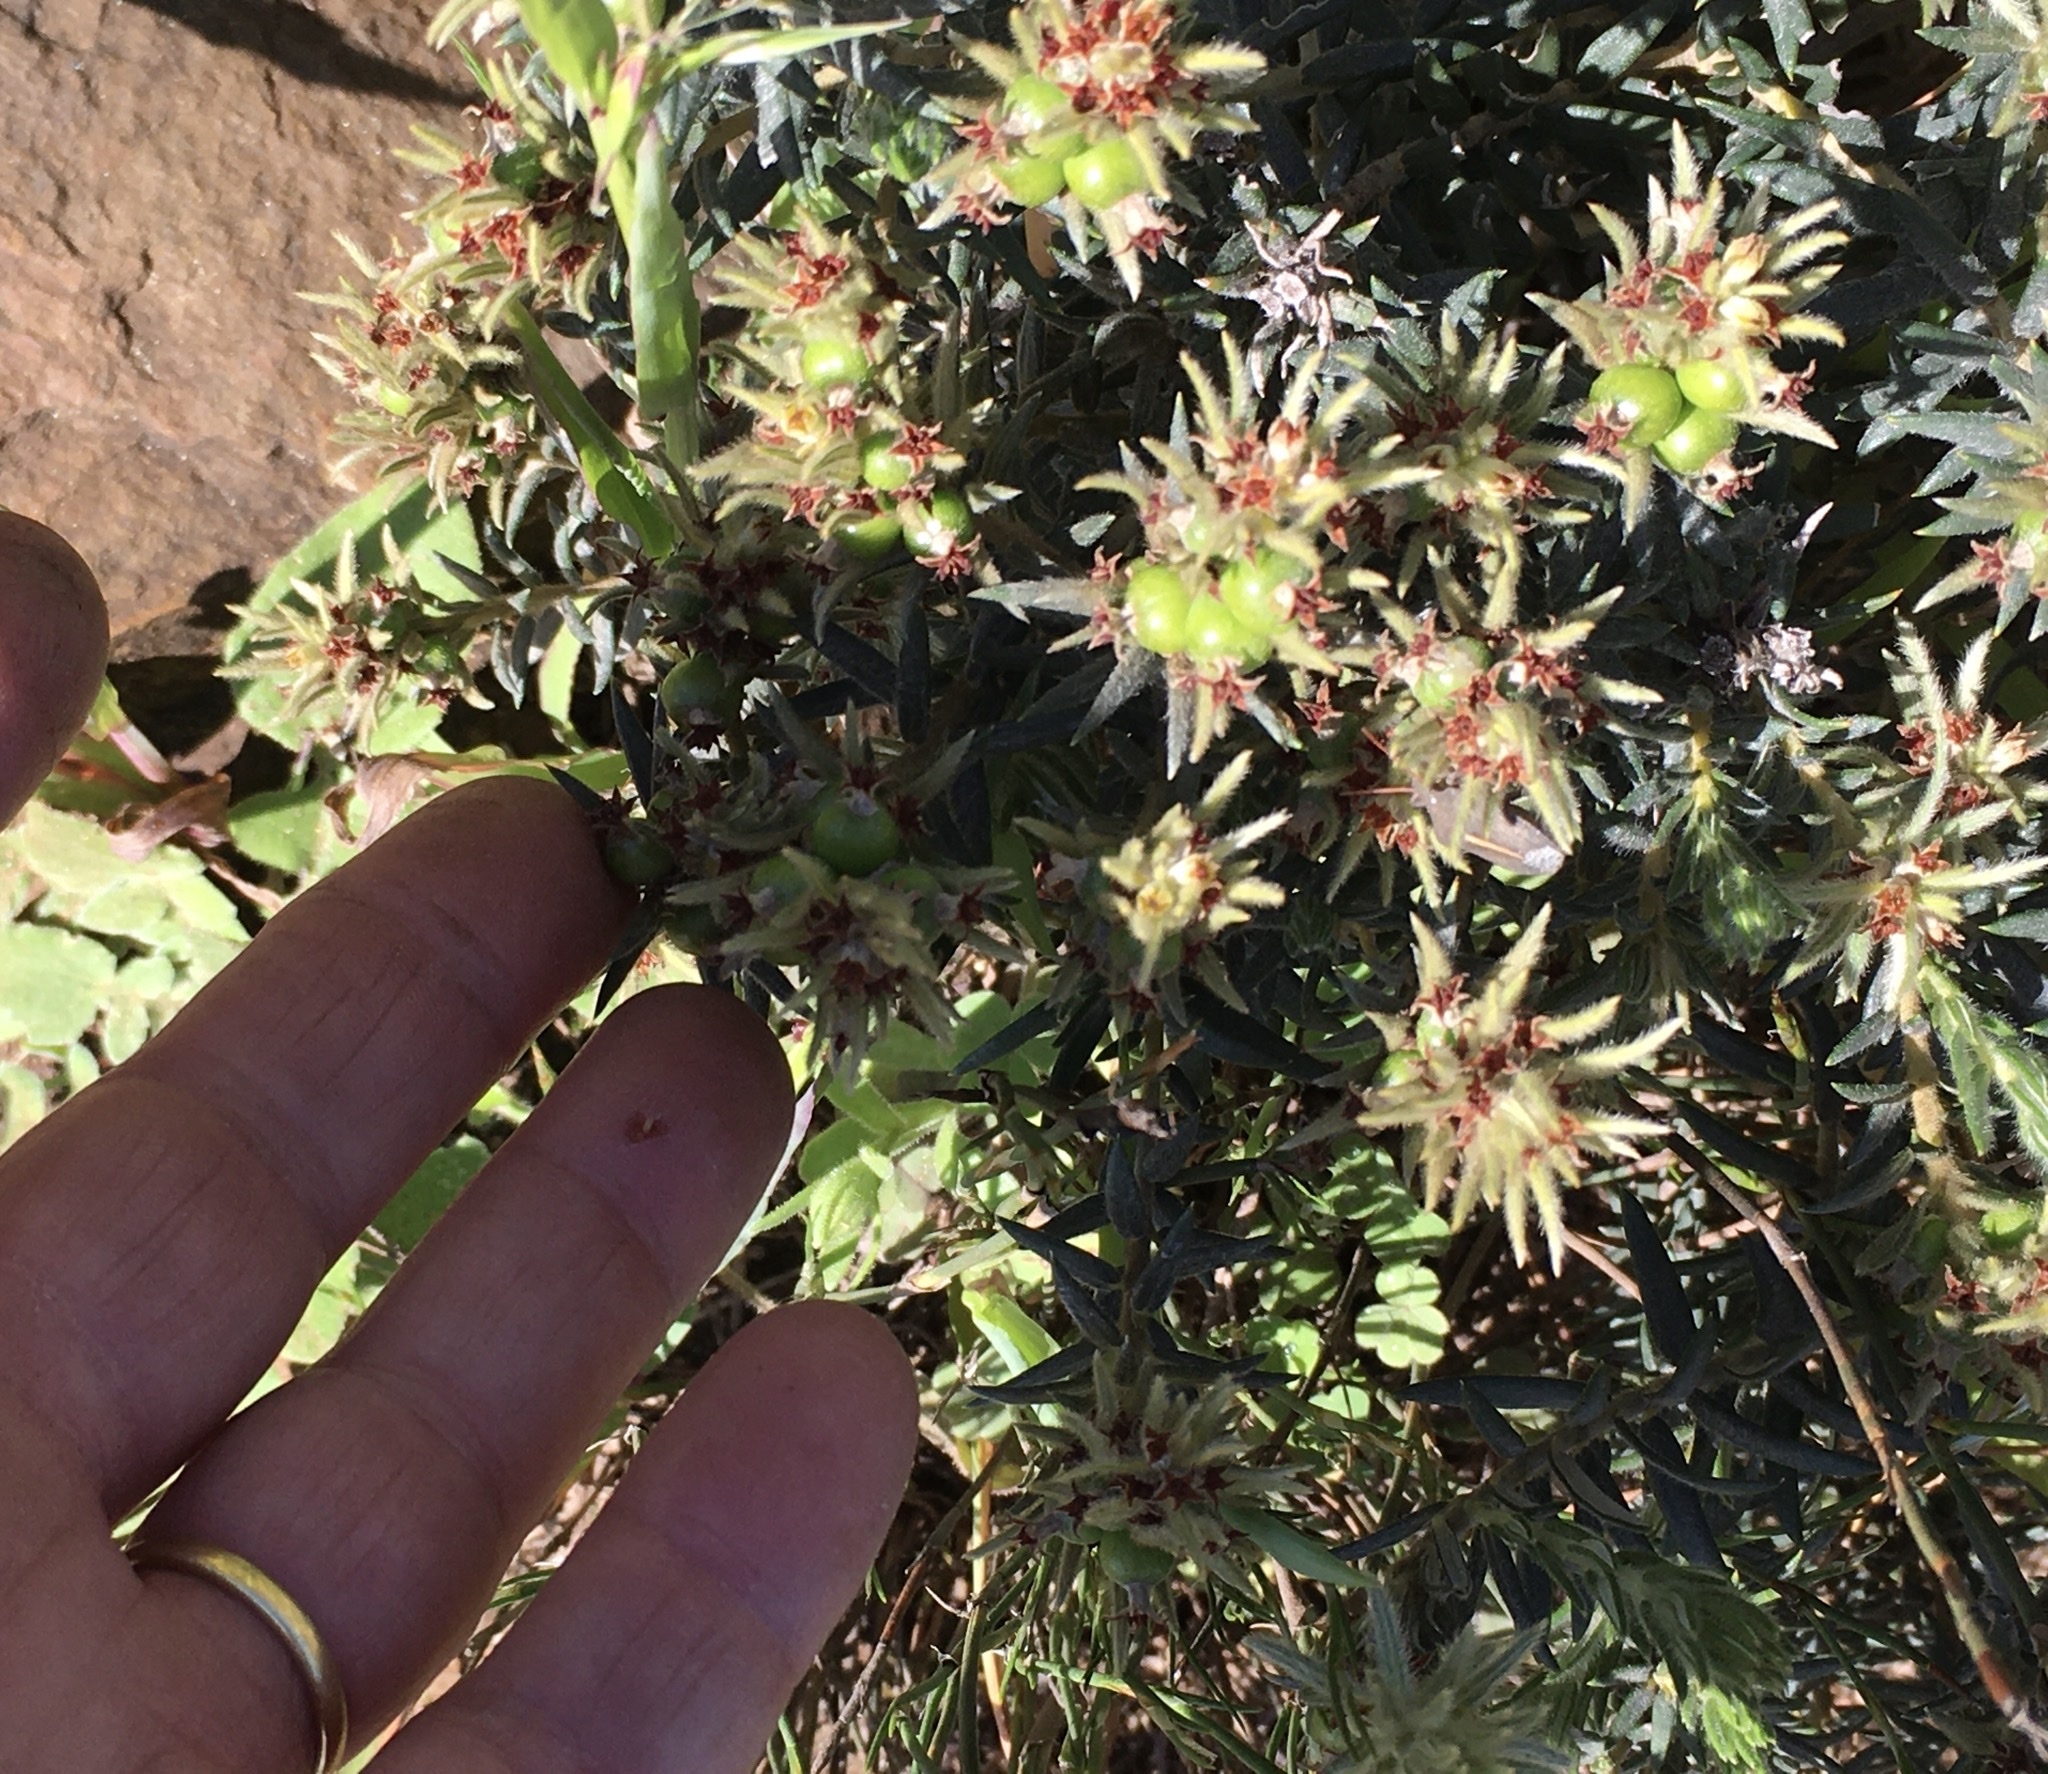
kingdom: Plantae
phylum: Tracheophyta
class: Magnoliopsida
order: Rosales
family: Rhamnaceae
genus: Phylica
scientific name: Phylica plumosa
